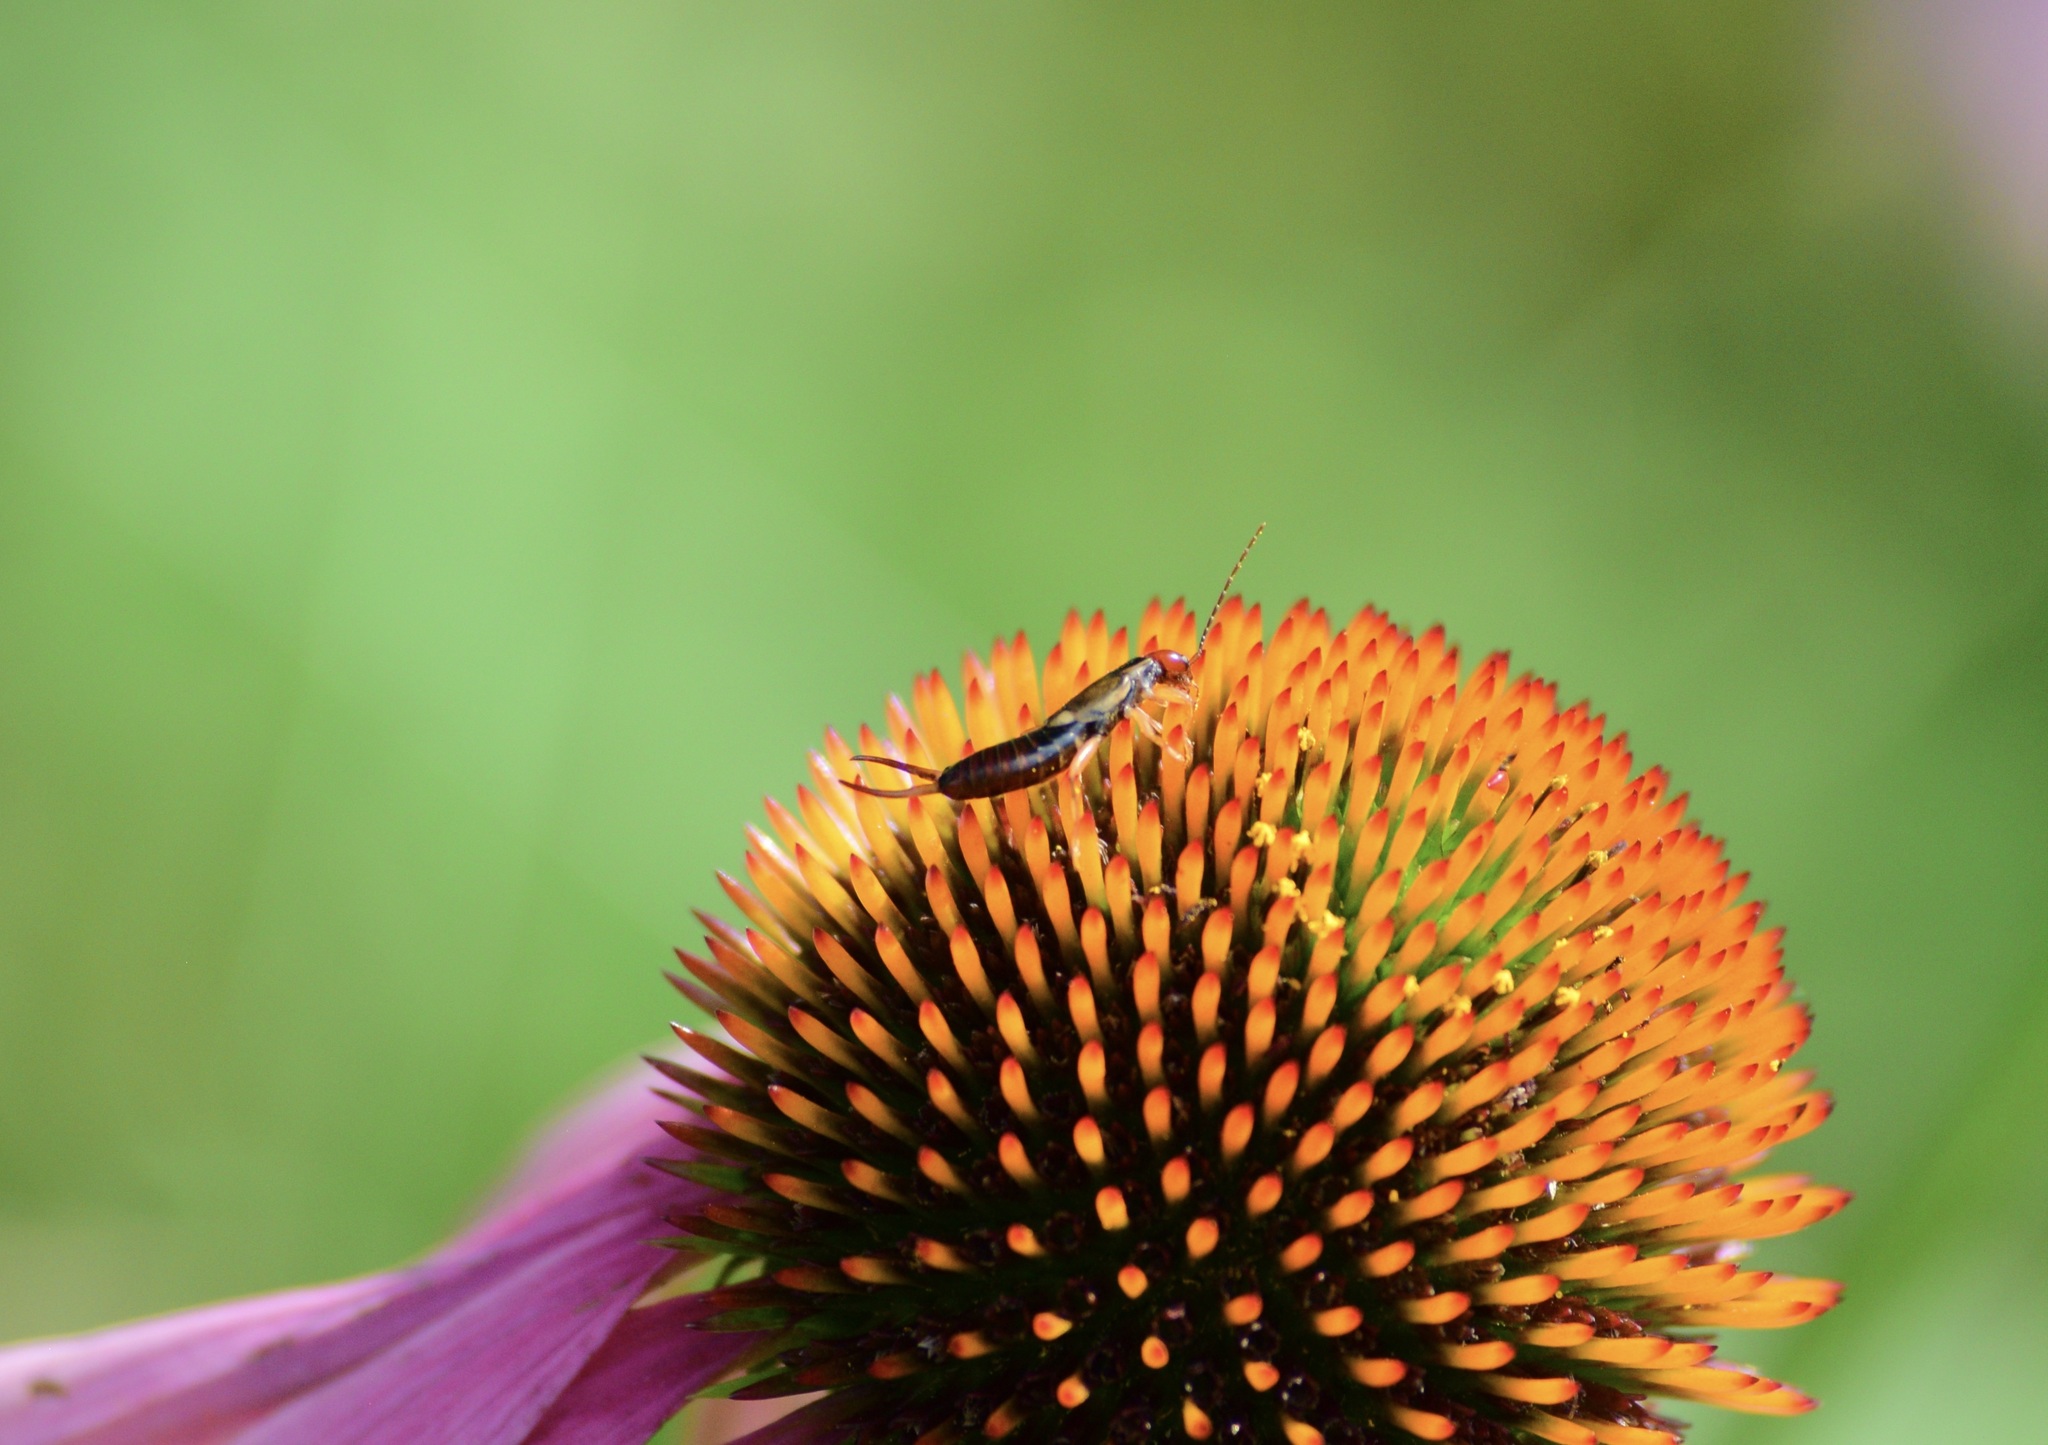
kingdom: Animalia
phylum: Arthropoda
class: Insecta
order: Dermaptera
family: Forficulidae
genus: Forficula
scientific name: Forficula
